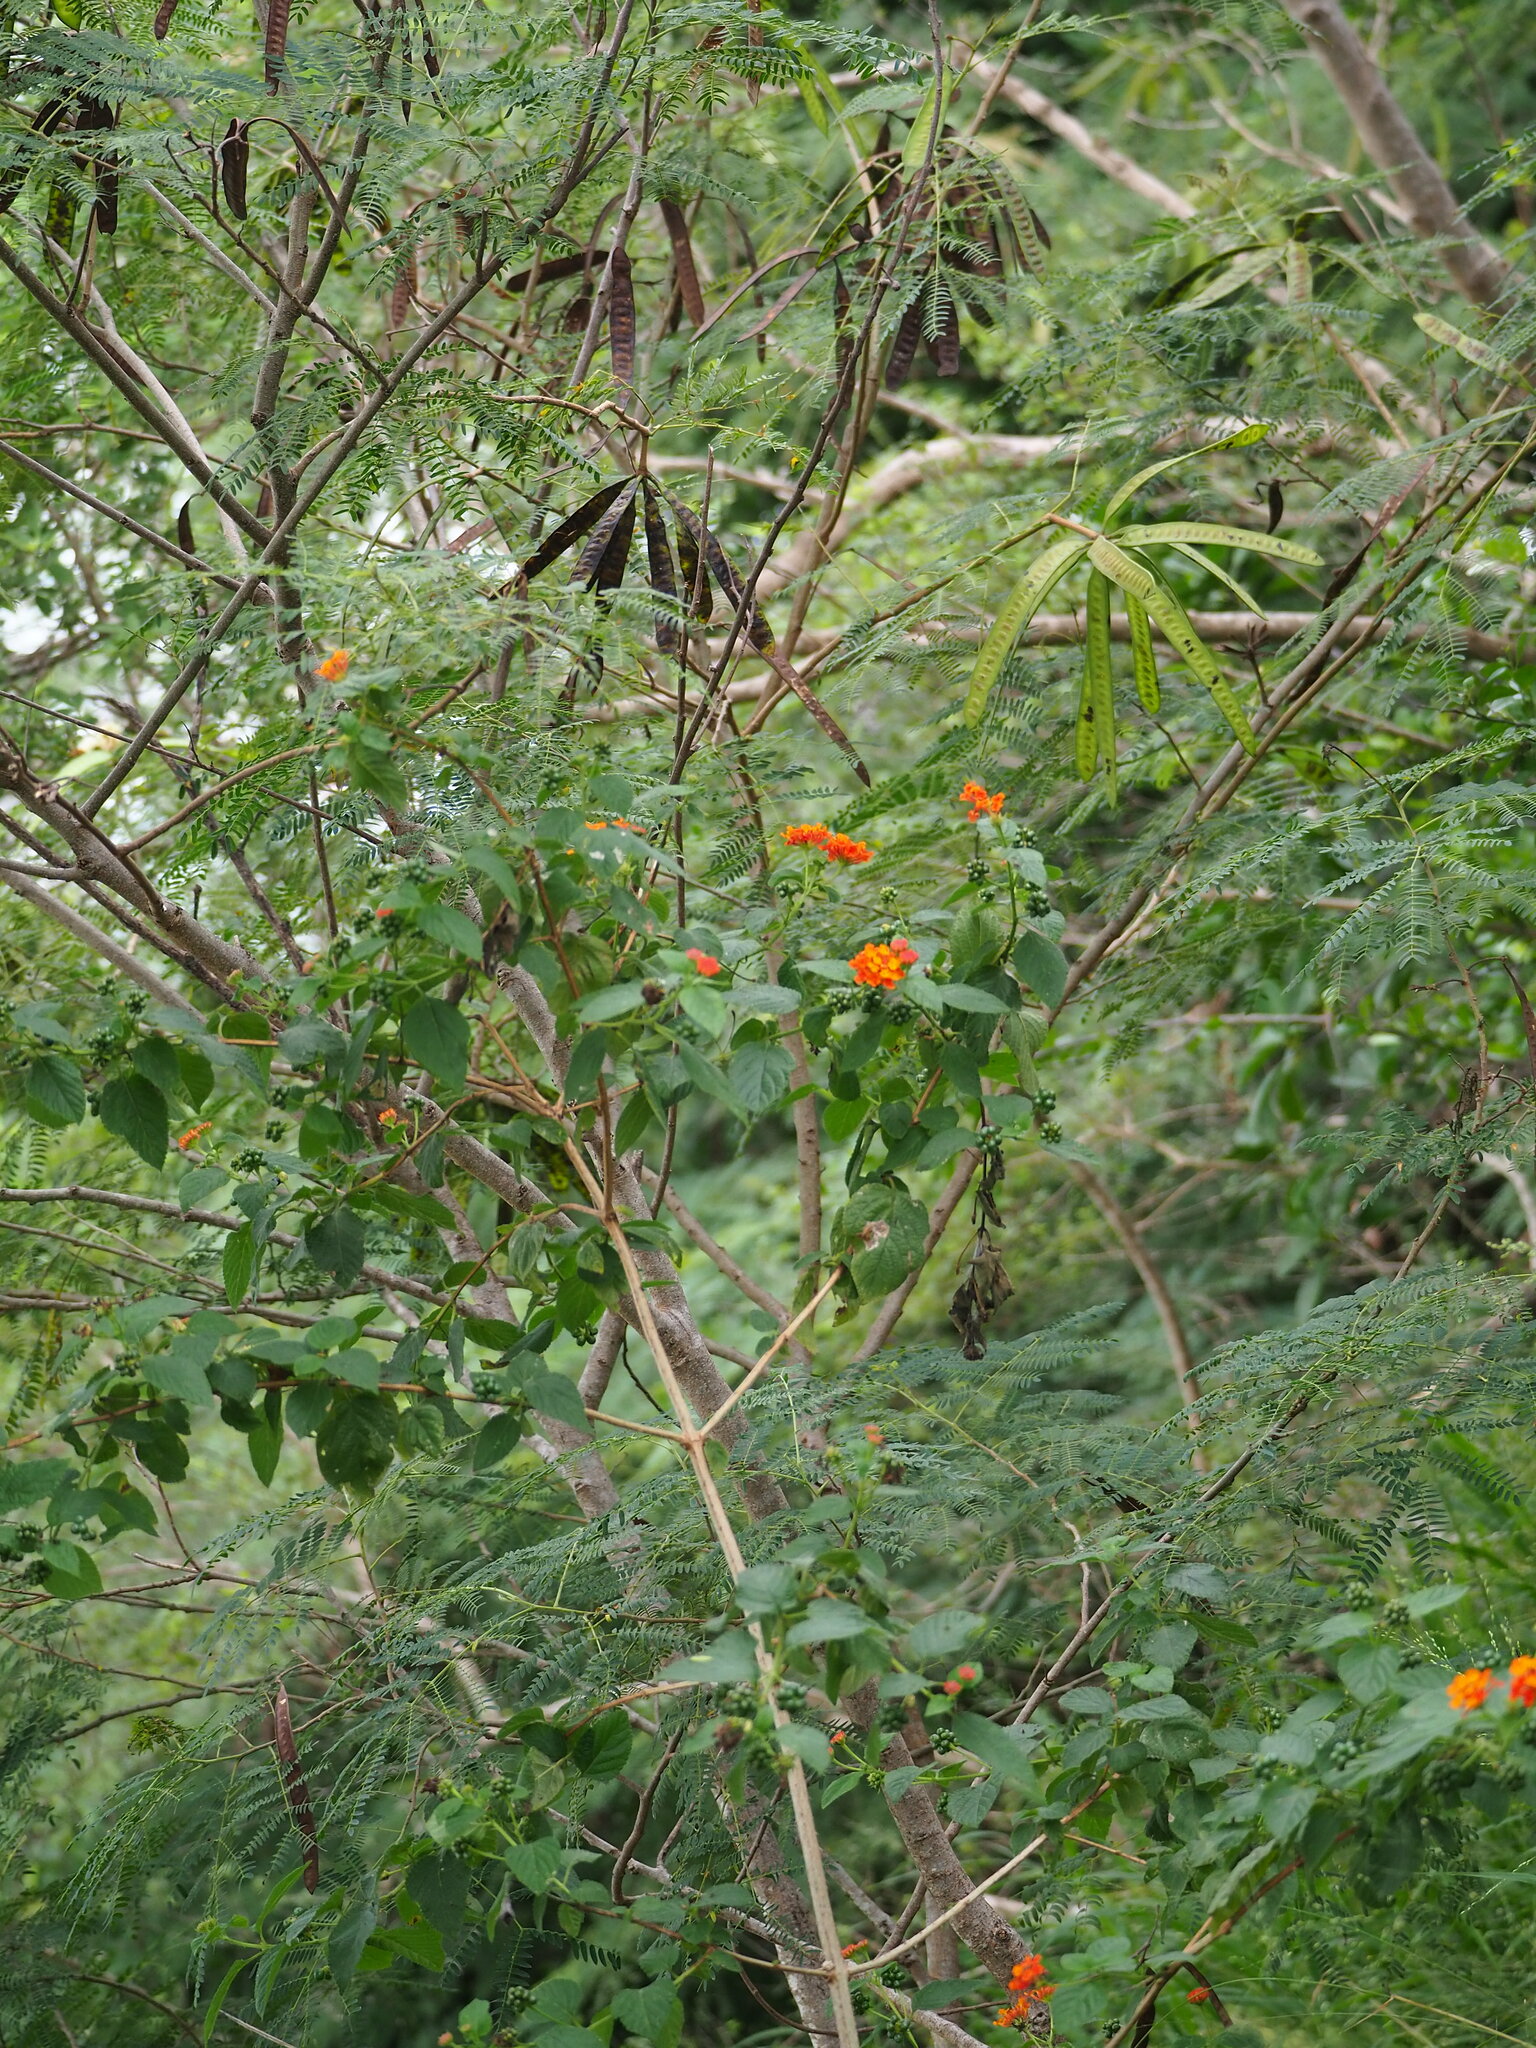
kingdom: Plantae
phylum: Tracheophyta
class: Magnoliopsida
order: Lamiales
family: Verbenaceae
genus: Lantana
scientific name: Lantana camara
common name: Lantana
